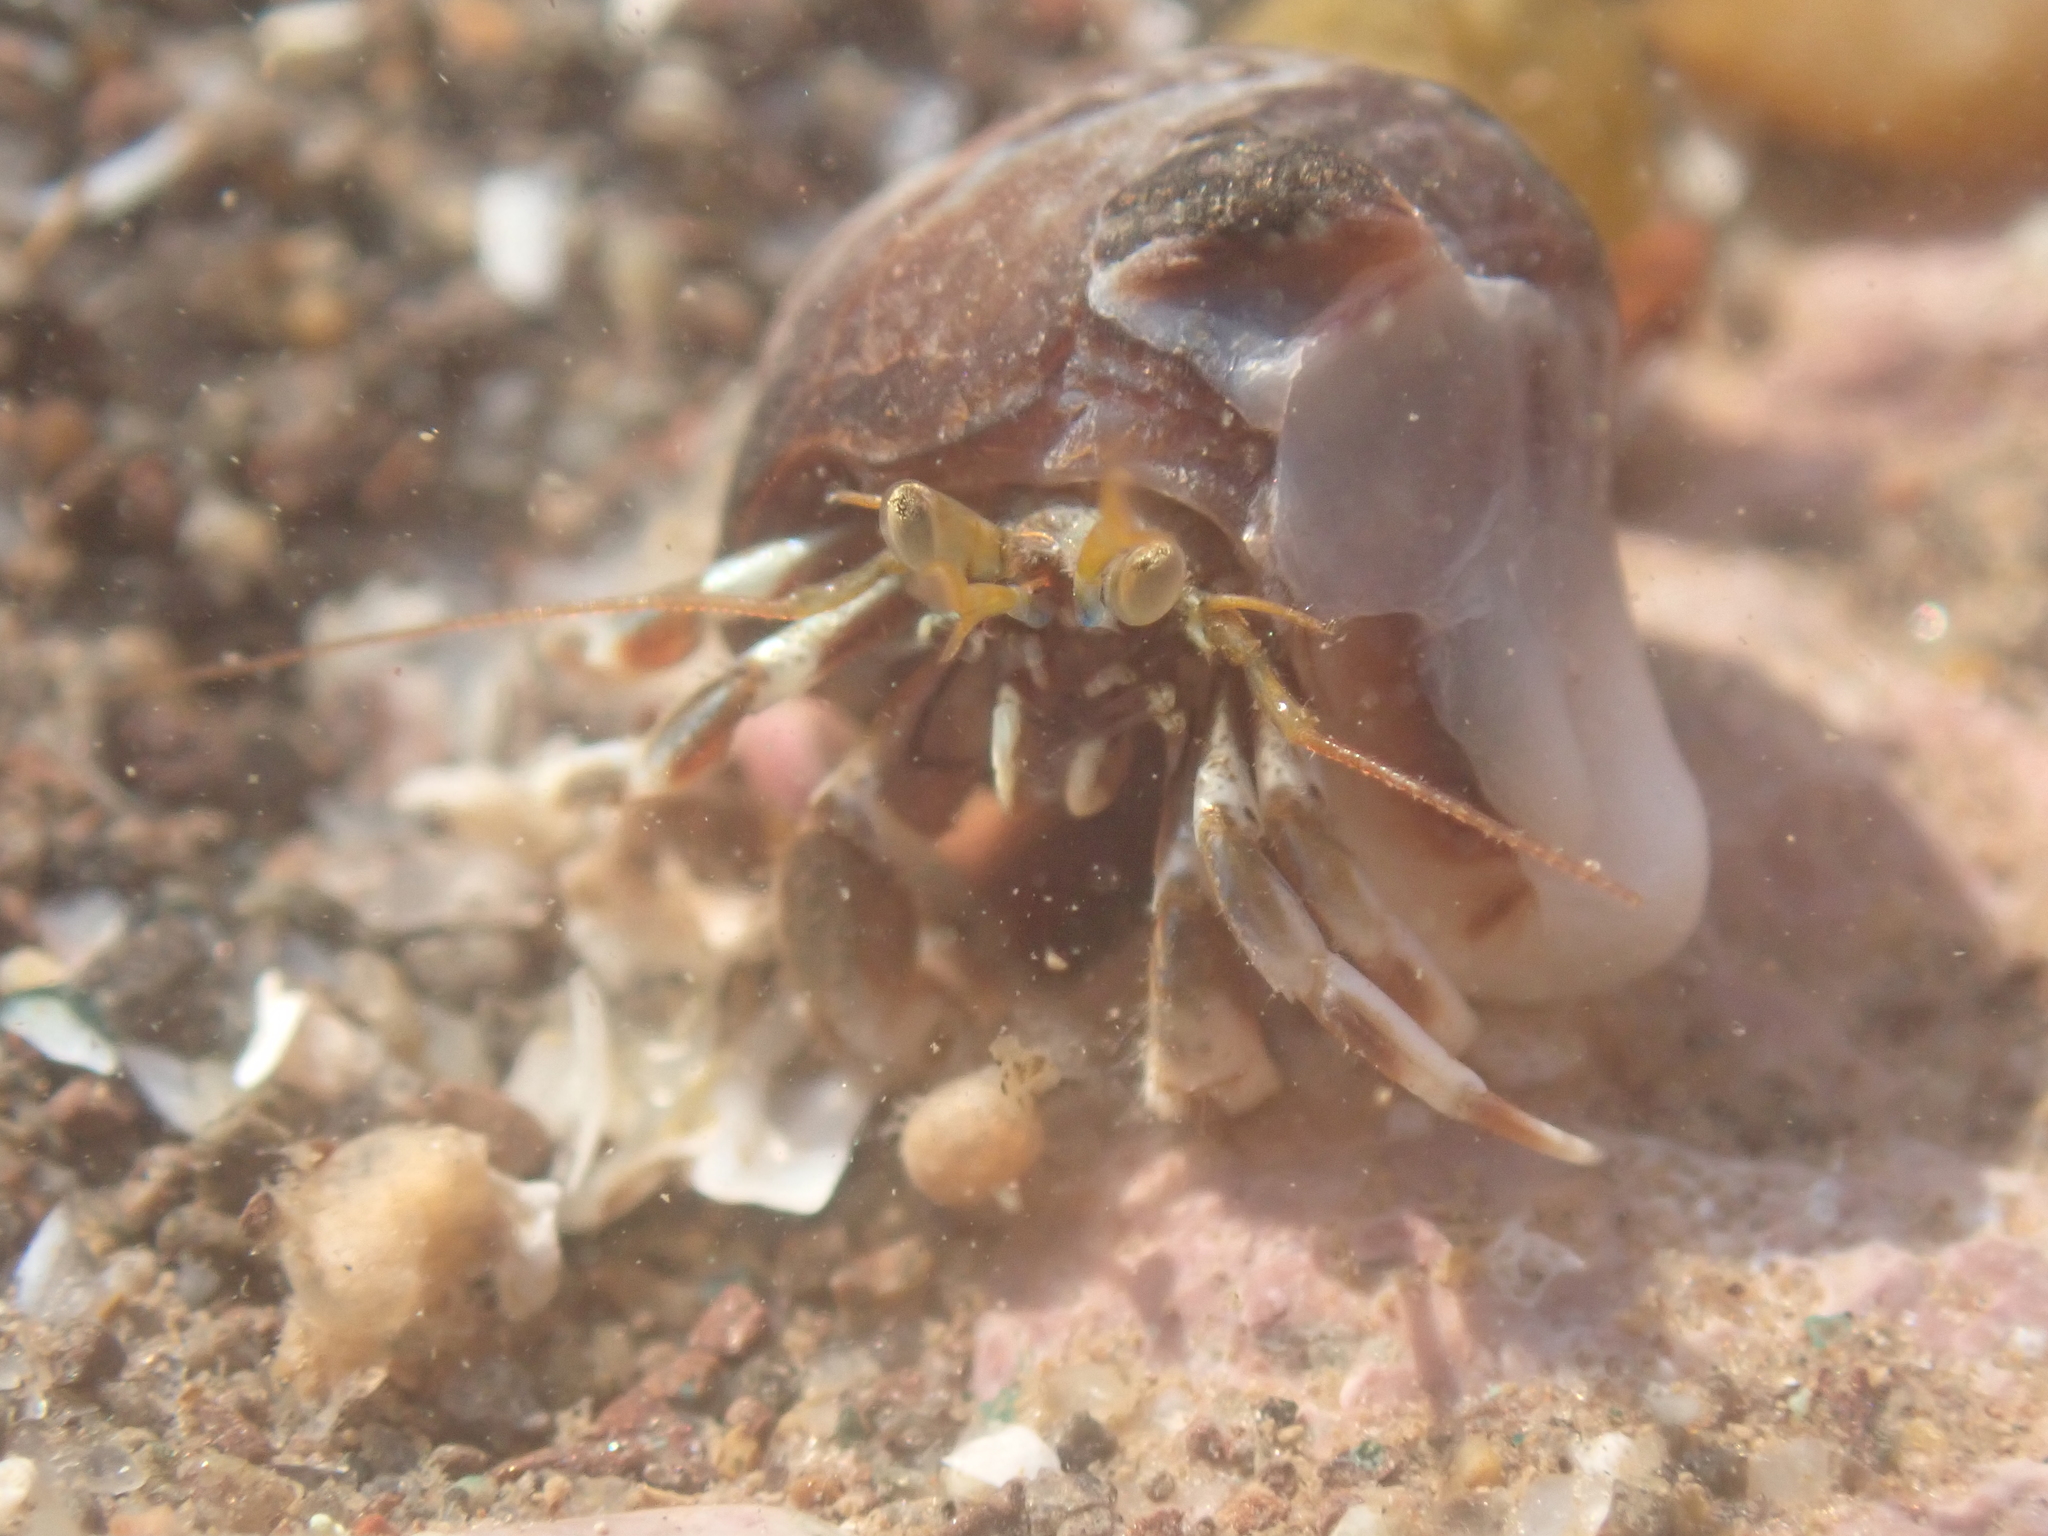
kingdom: Animalia
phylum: Arthropoda
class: Malacostraca
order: Decapoda
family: Paguridae
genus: Pagurus
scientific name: Pagurus acadianus
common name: Acadian hermit crab
